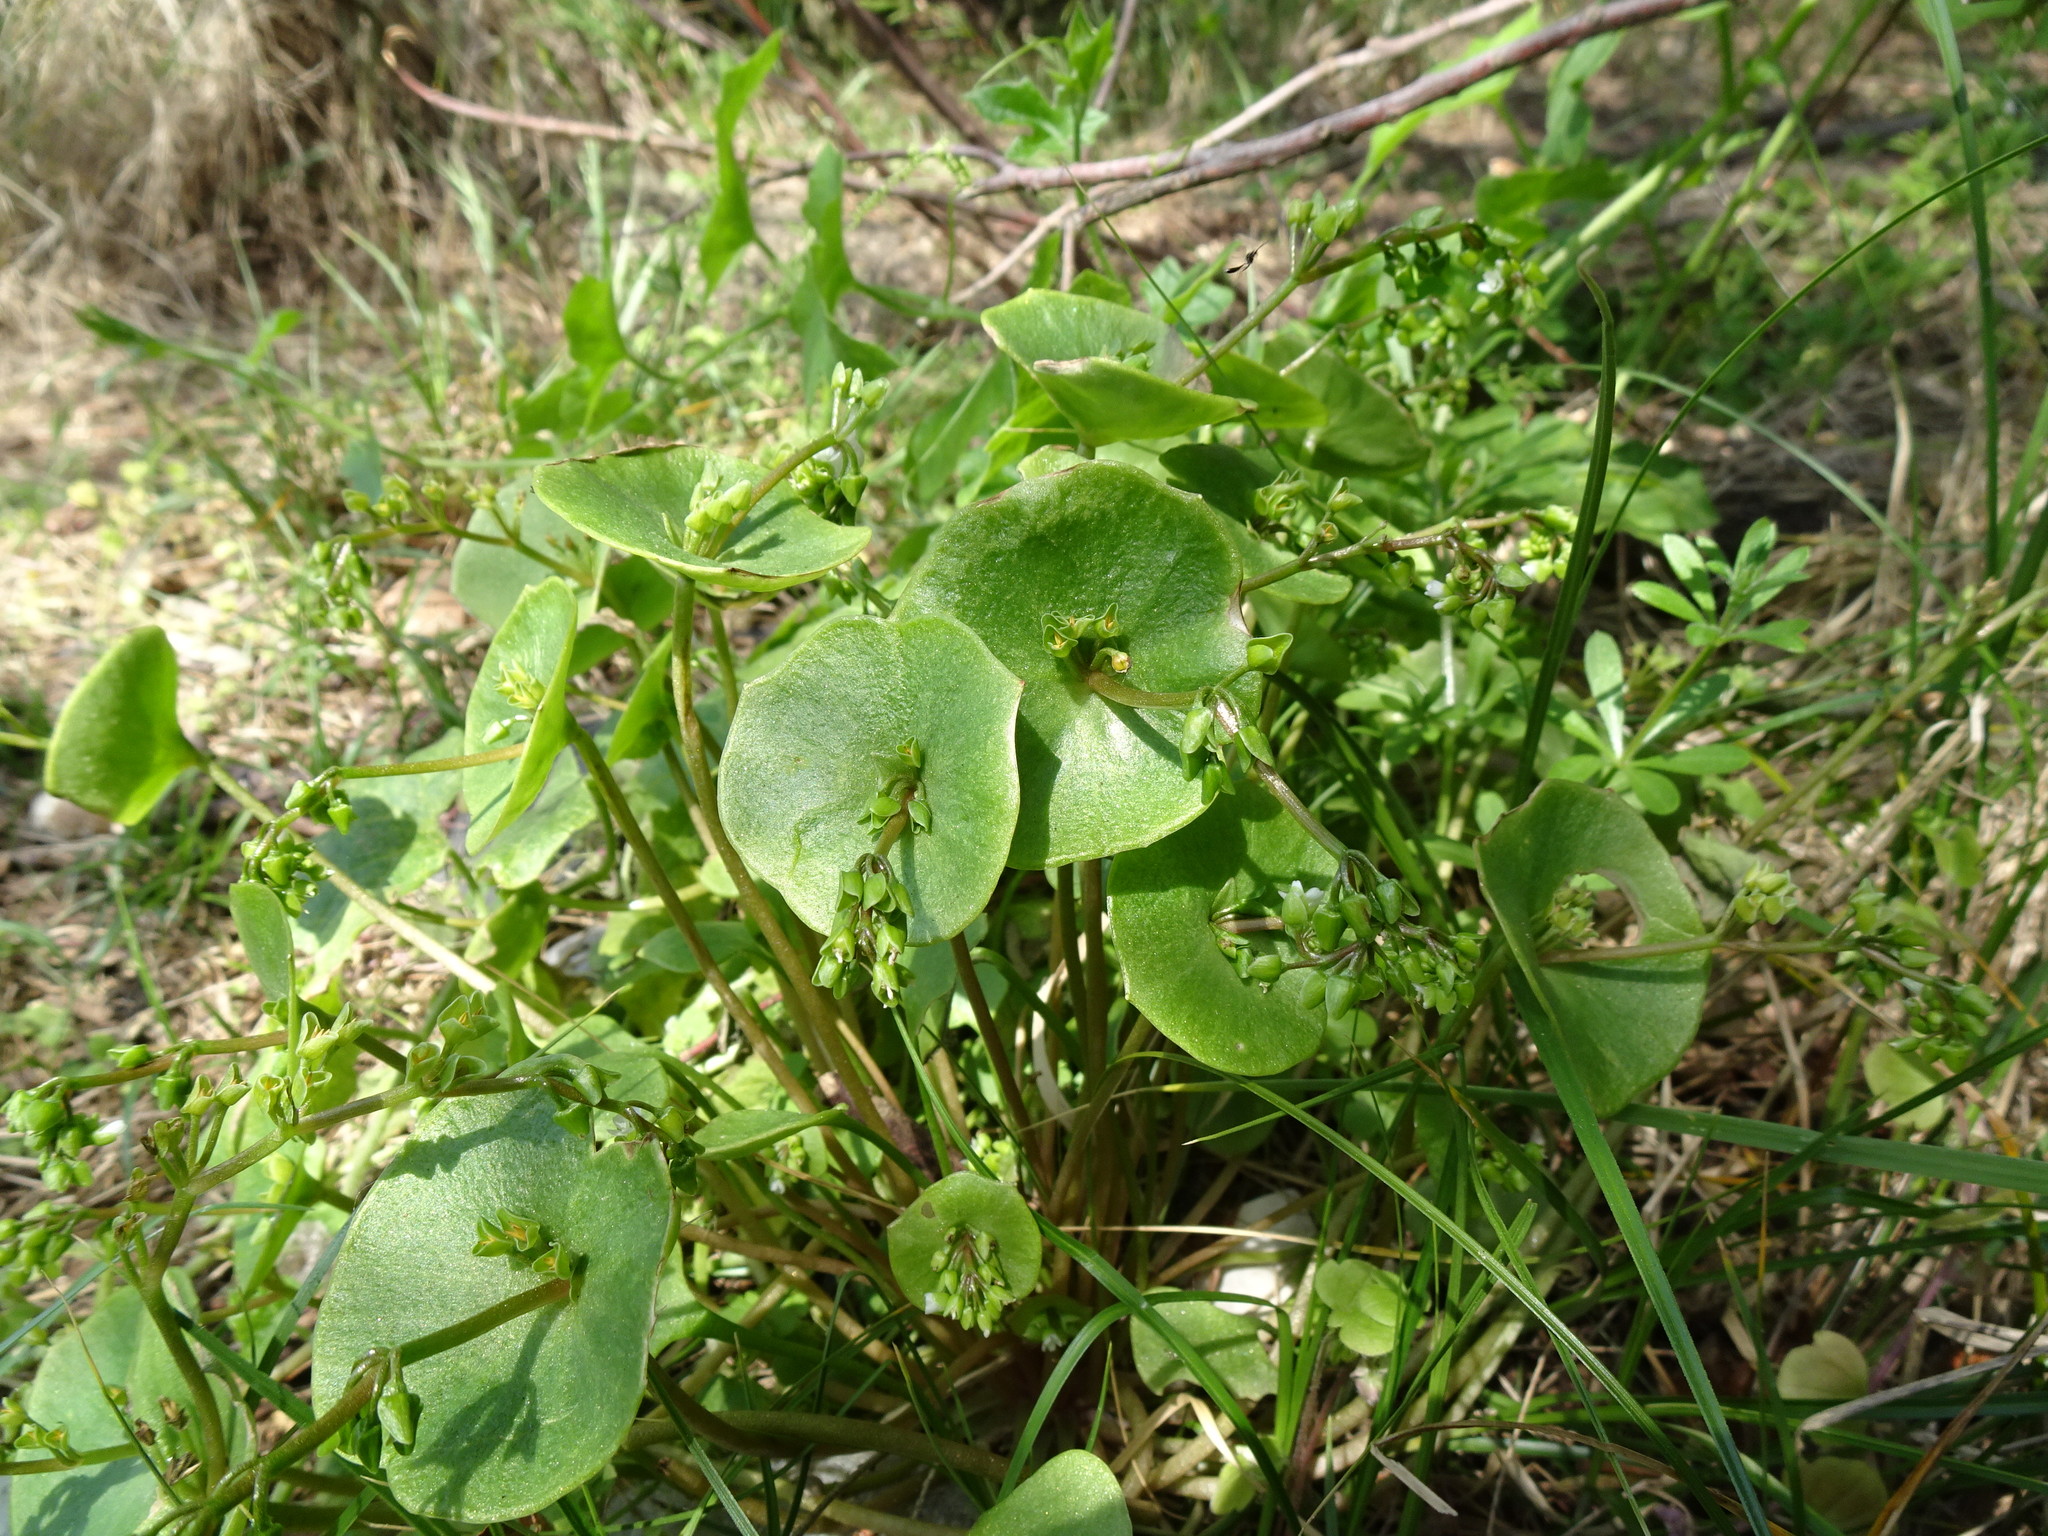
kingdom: Plantae
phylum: Tracheophyta
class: Magnoliopsida
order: Caryophyllales
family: Montiaceae
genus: Claytonia
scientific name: Claytonia perfoliata
